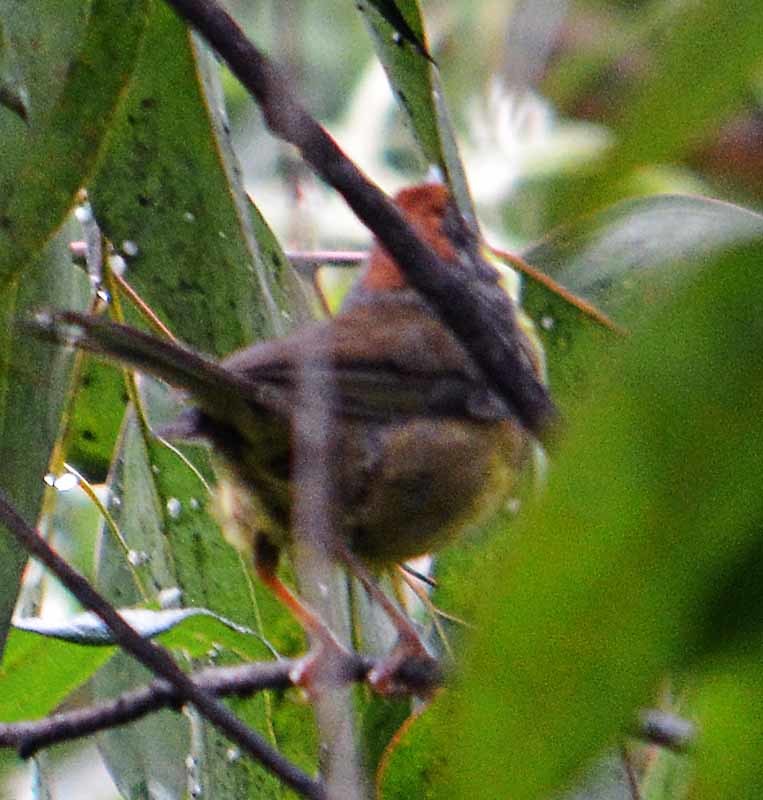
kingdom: Animalia
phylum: Chordata
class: Aves
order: Passeriformes
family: Passerellidae
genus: Atlapetes
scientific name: Atlapetes pileatus
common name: Rufous-capped brush-finch
